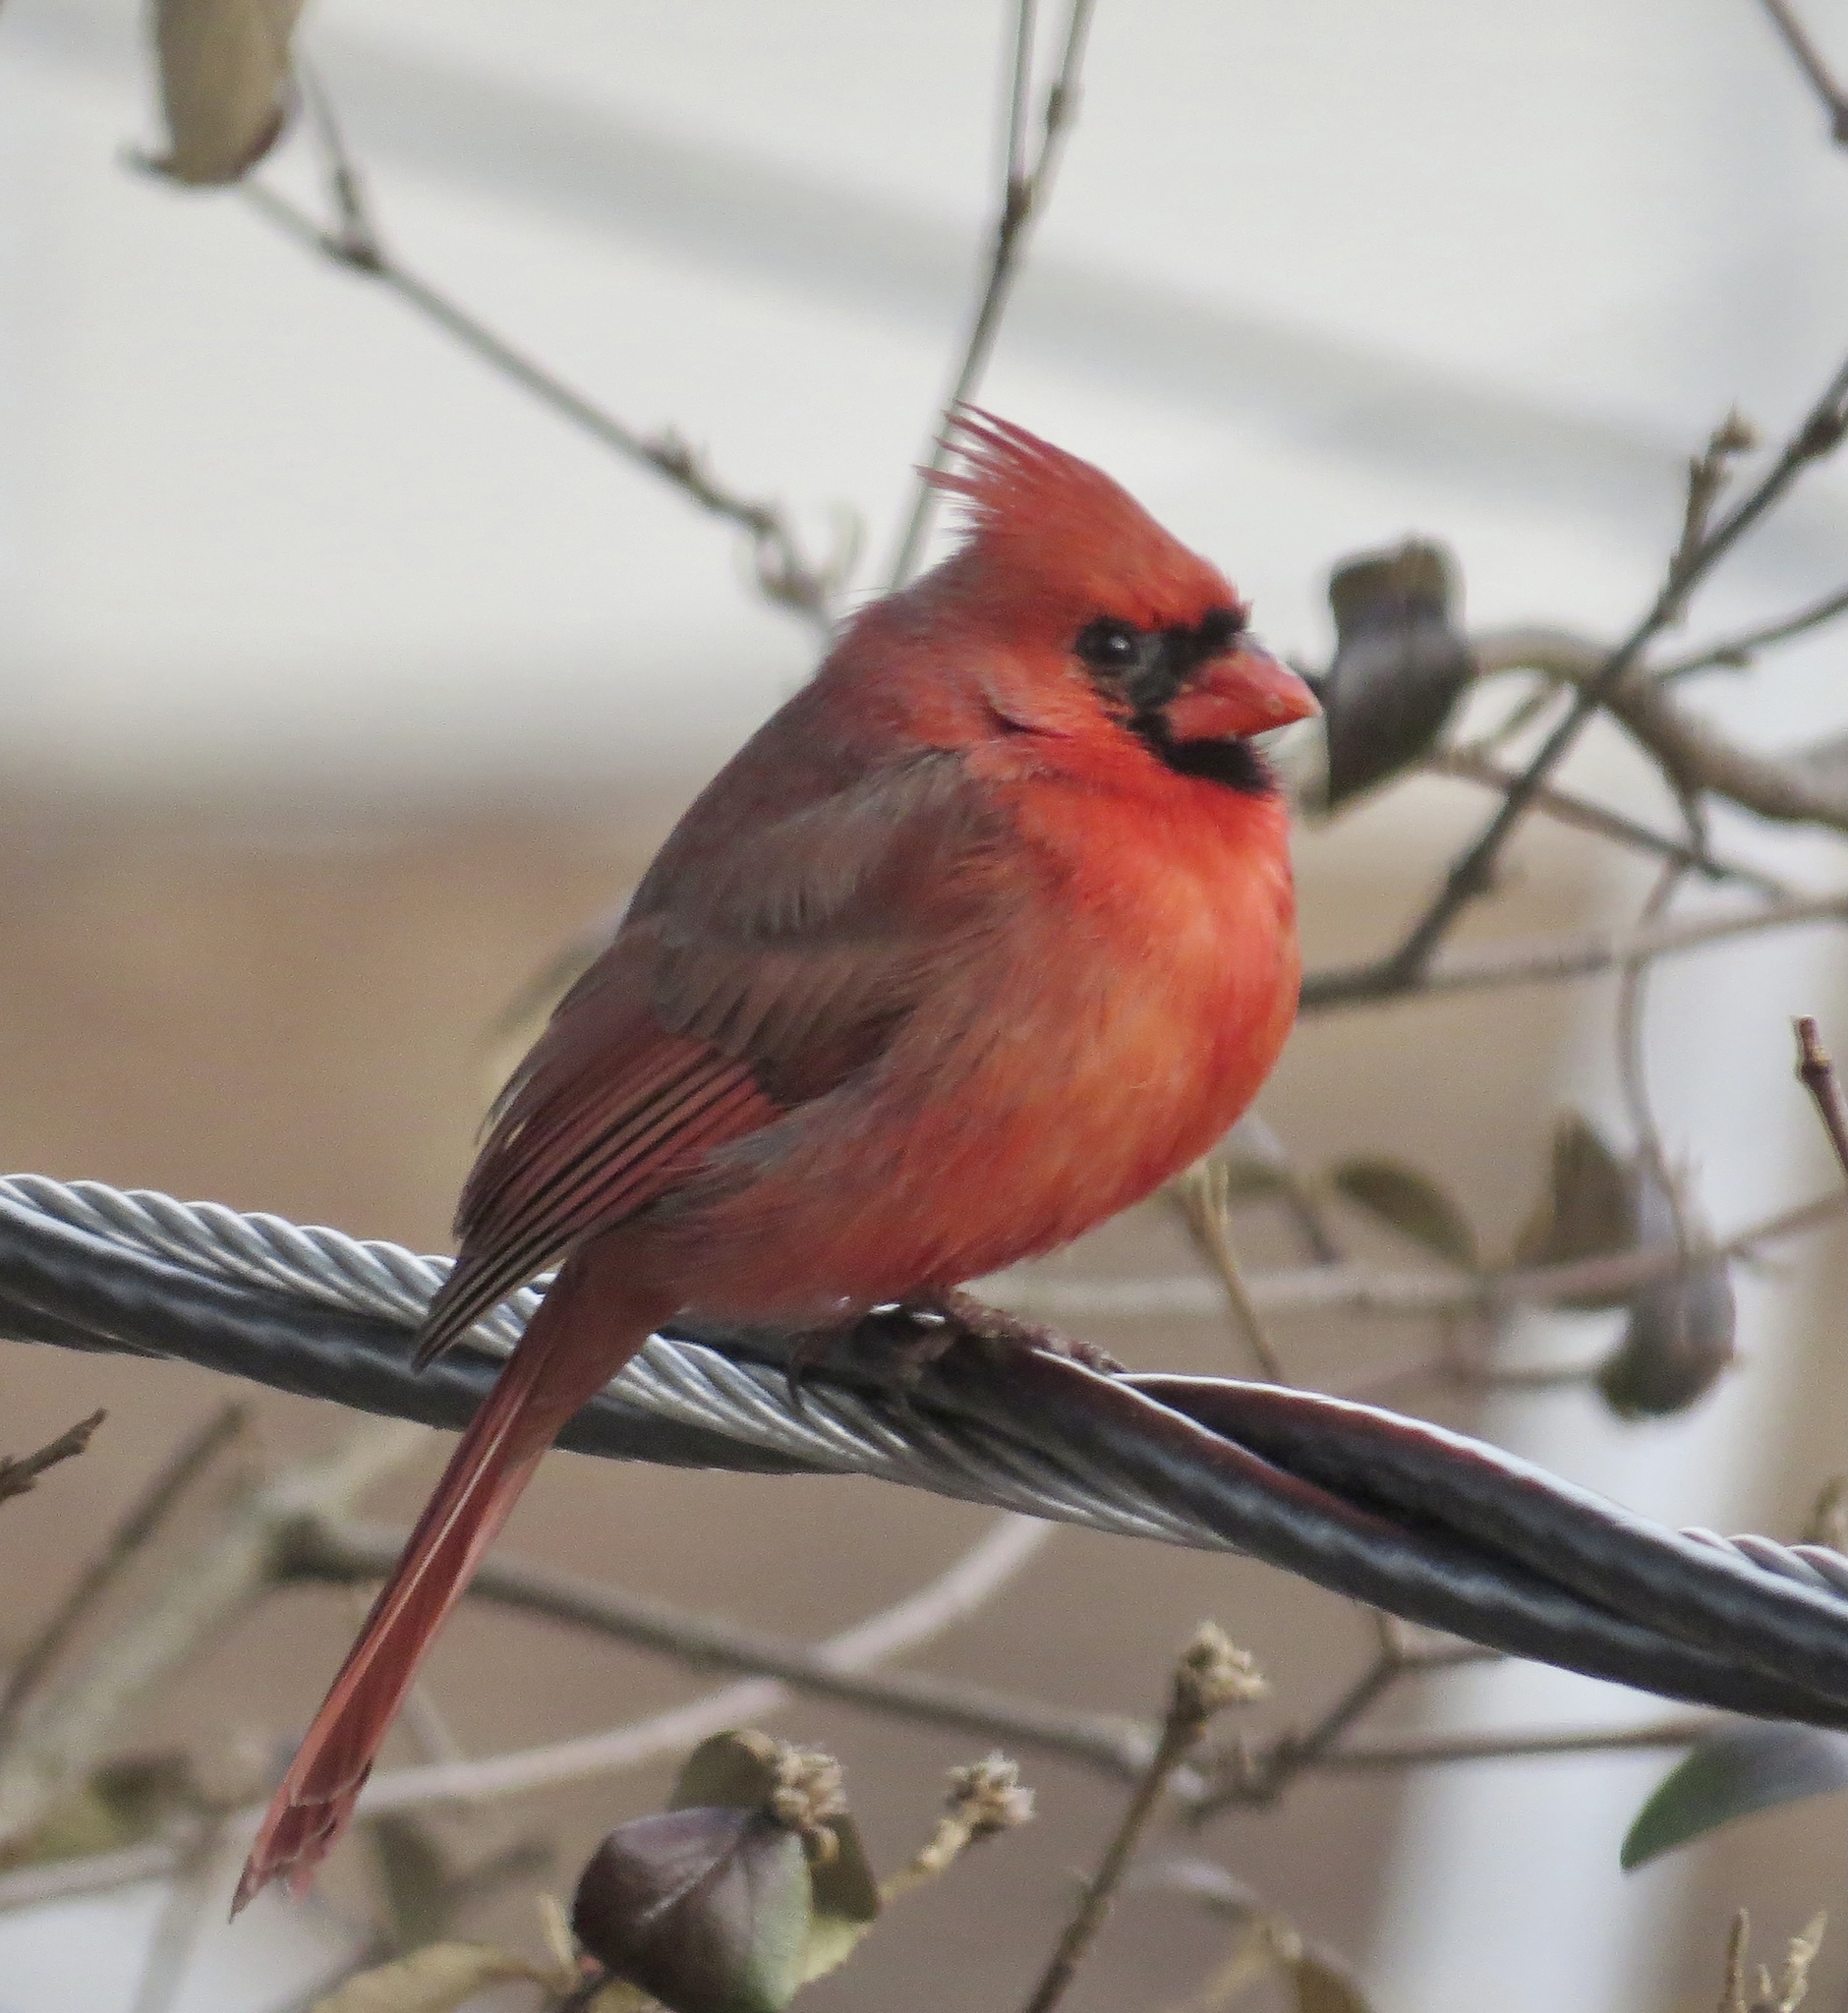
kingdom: Animalia
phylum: Chordata
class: Aves
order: Passeriformes
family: Cardinalidae
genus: Cardinalis
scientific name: Cardinalis cardinalis
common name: Northern cardinal
